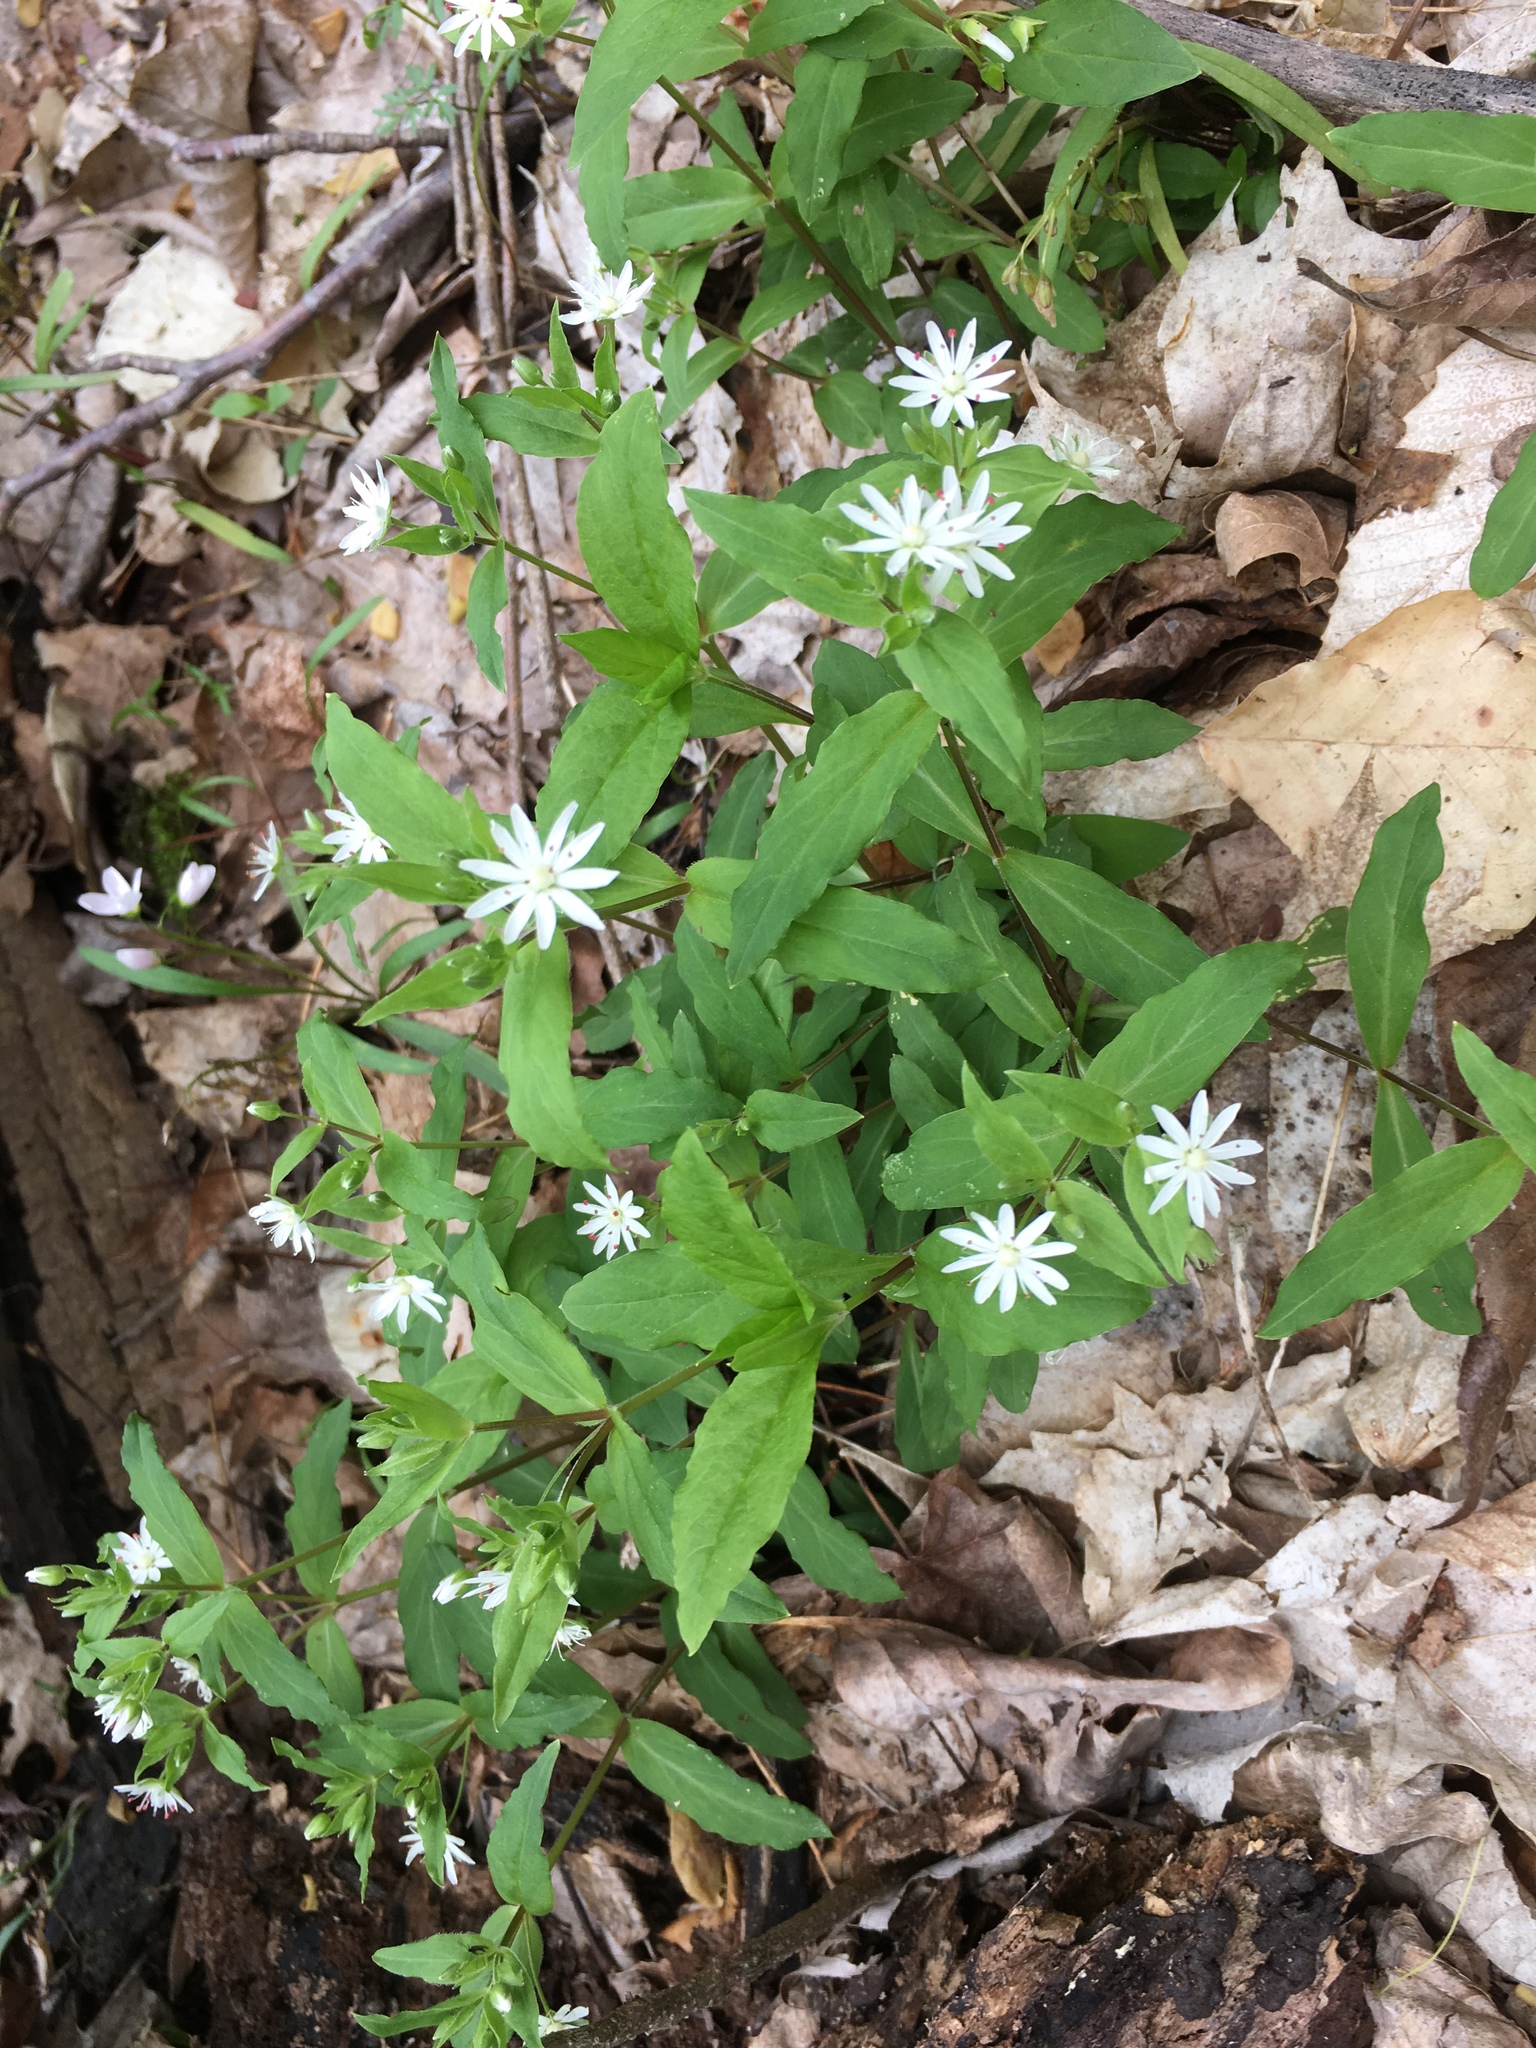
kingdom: Plantae
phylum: Tracheophyta
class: Magnoliopsida
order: Caryophyllales
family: Caryophyllaceae
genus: Stellaria
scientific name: Stellaria pubera
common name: Star chickweed
